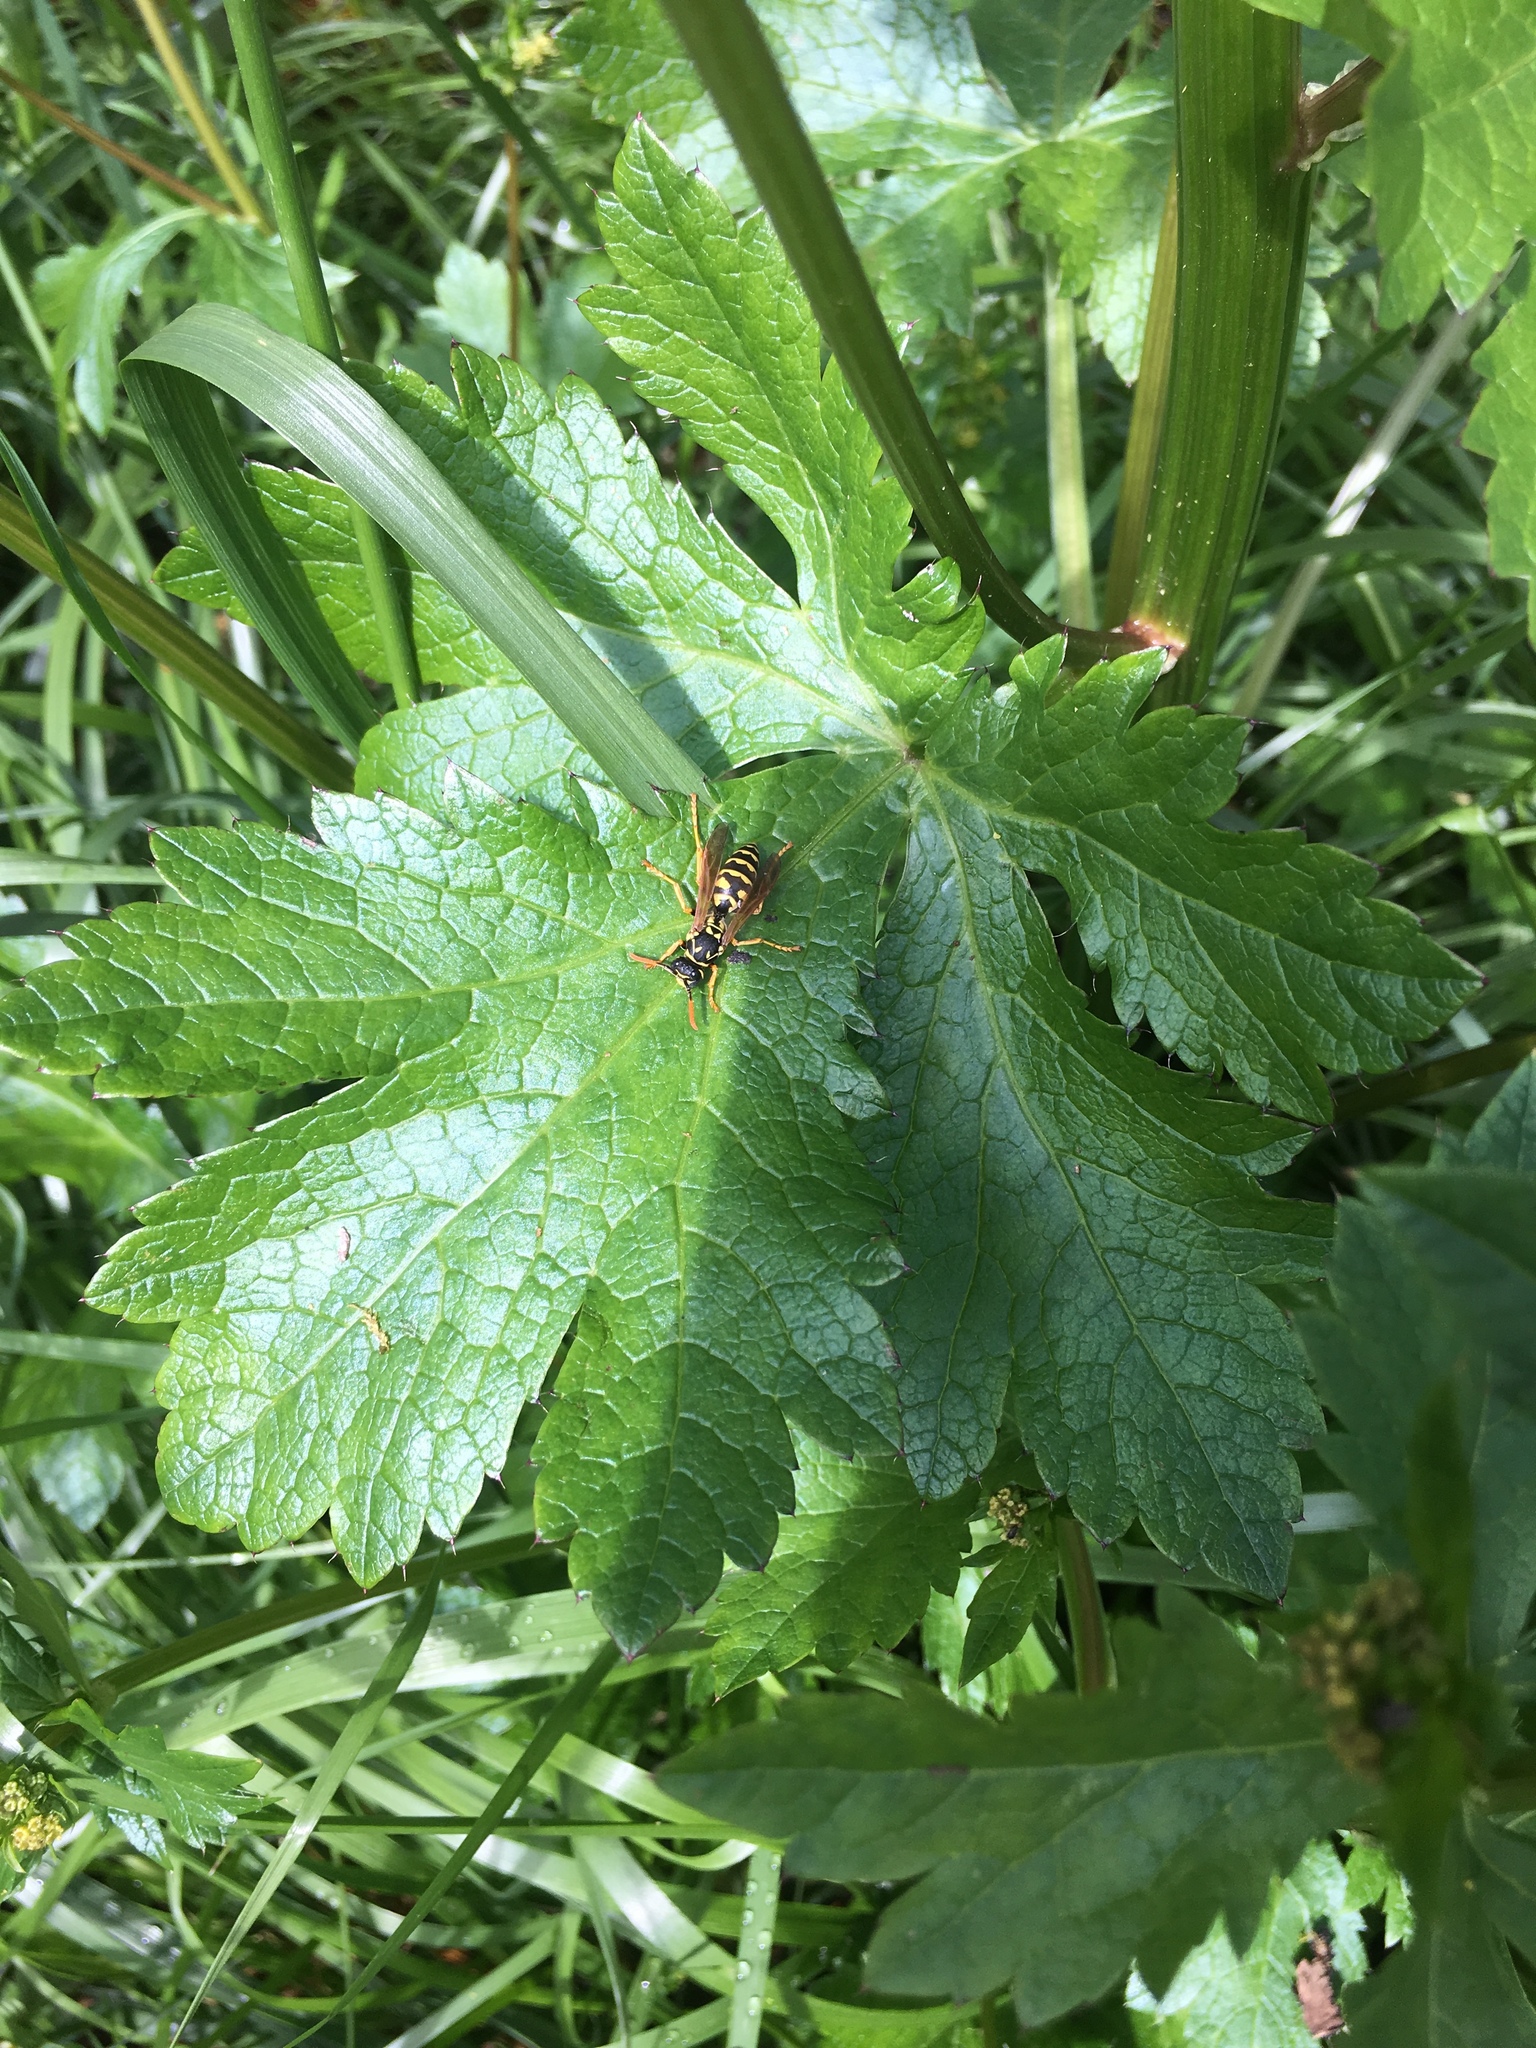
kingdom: Animalia
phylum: Arthropoda
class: Insecta
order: Hymenoptera
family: Eumenidae
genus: Polistes
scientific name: Polistes dominula
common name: Paper wasp
